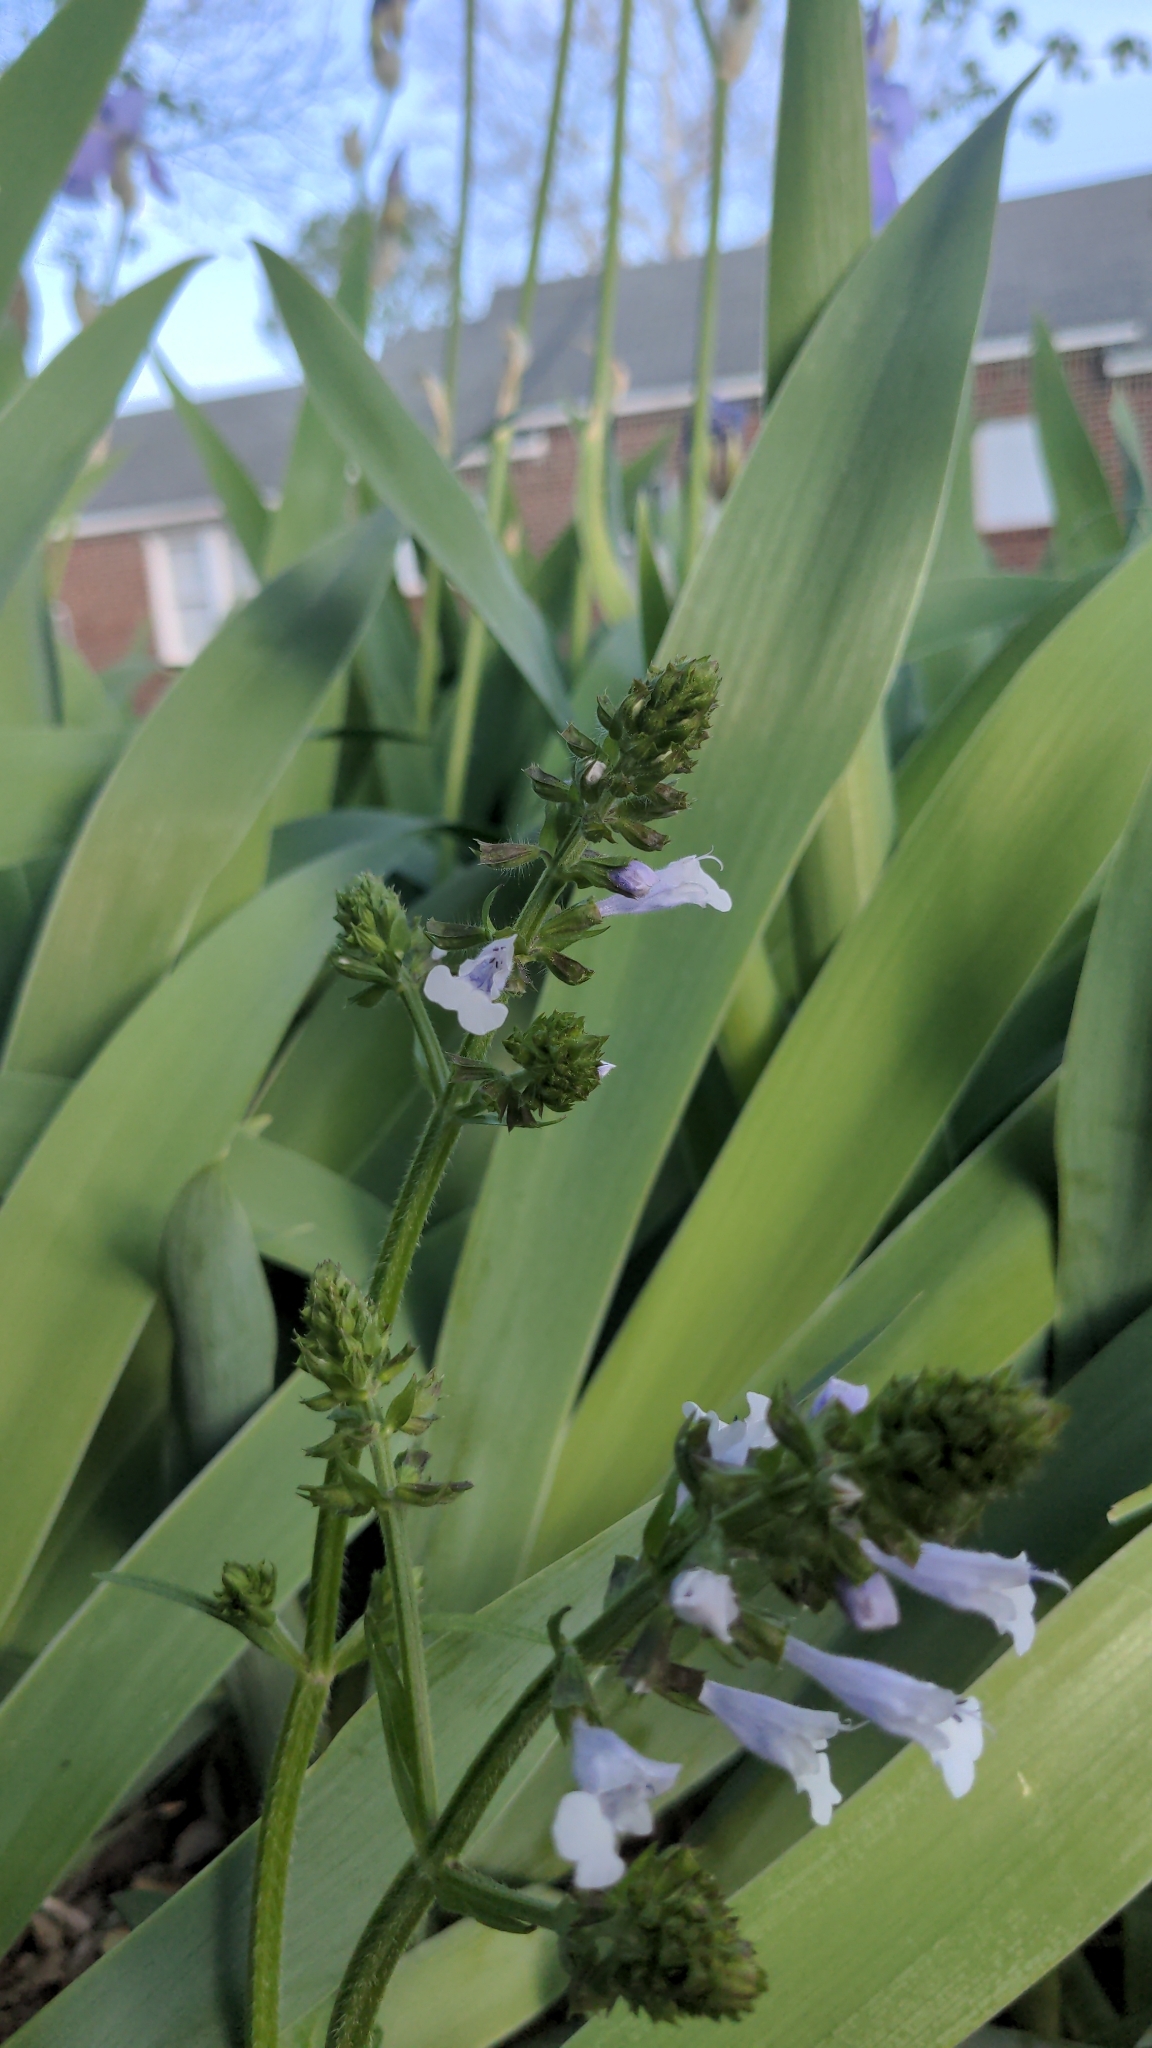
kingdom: Plantae
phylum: Tracheophyta
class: Magnoliopsida
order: Lamiales
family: Lamiaceae
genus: Salvia
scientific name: Salvia lyrata
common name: Cancerweed
